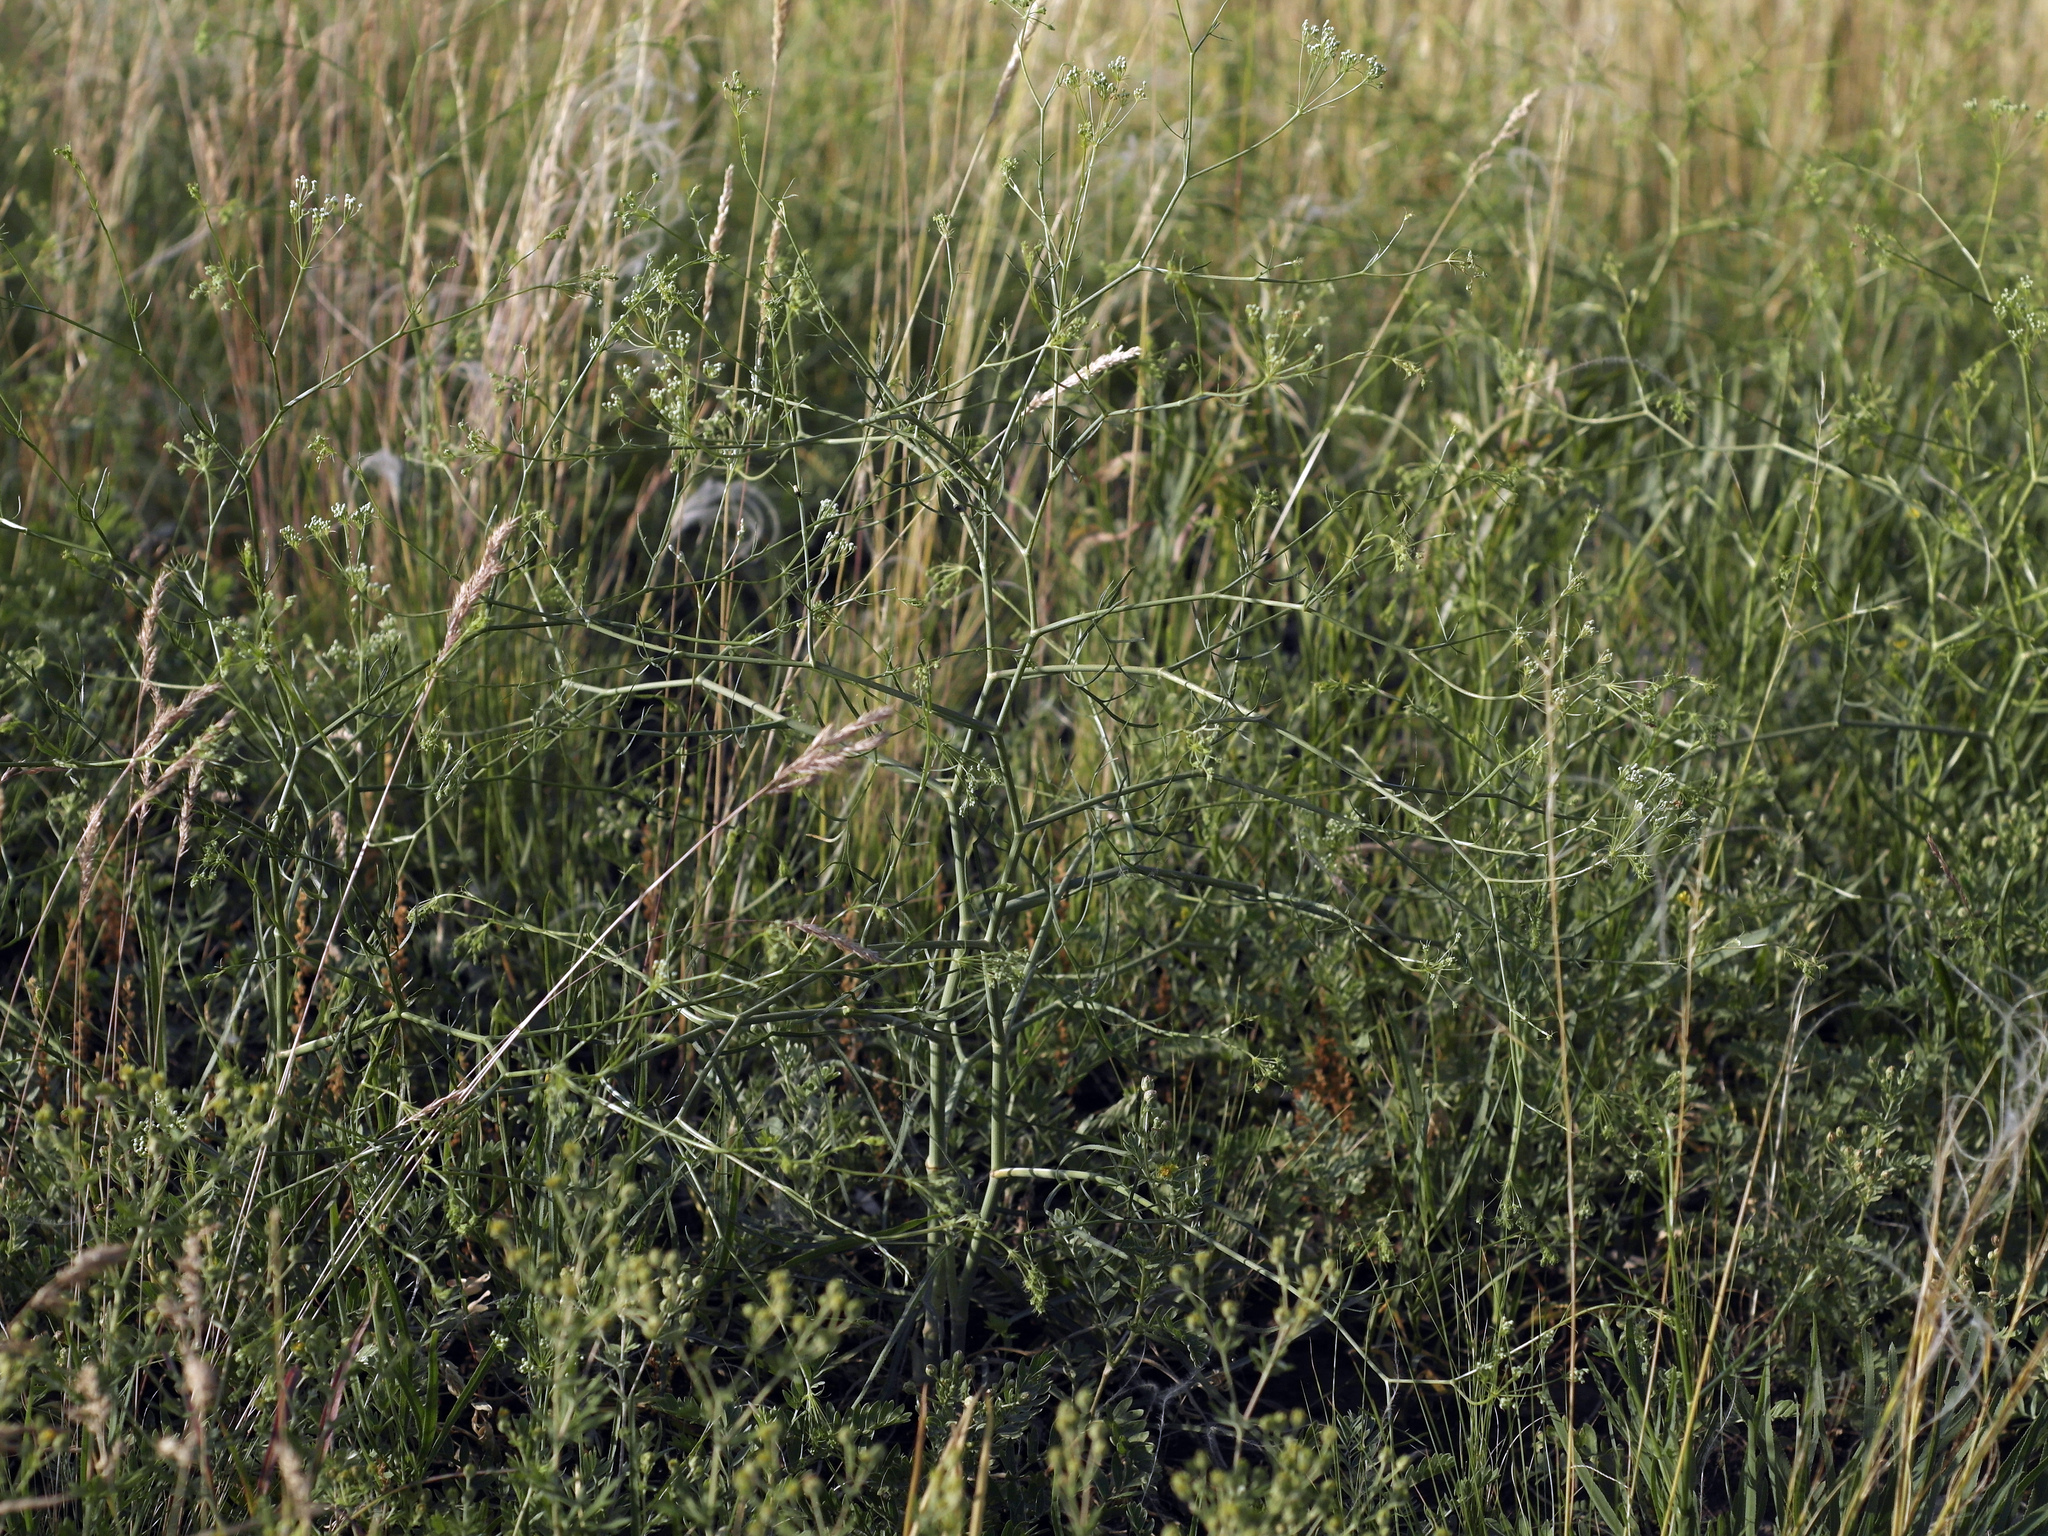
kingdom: Plantae
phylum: Tracheophyta
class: Magnoliopsida
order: Apiales
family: Apiaceae
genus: Falcaria
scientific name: Falcaria vulgaris
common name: Longleaf
